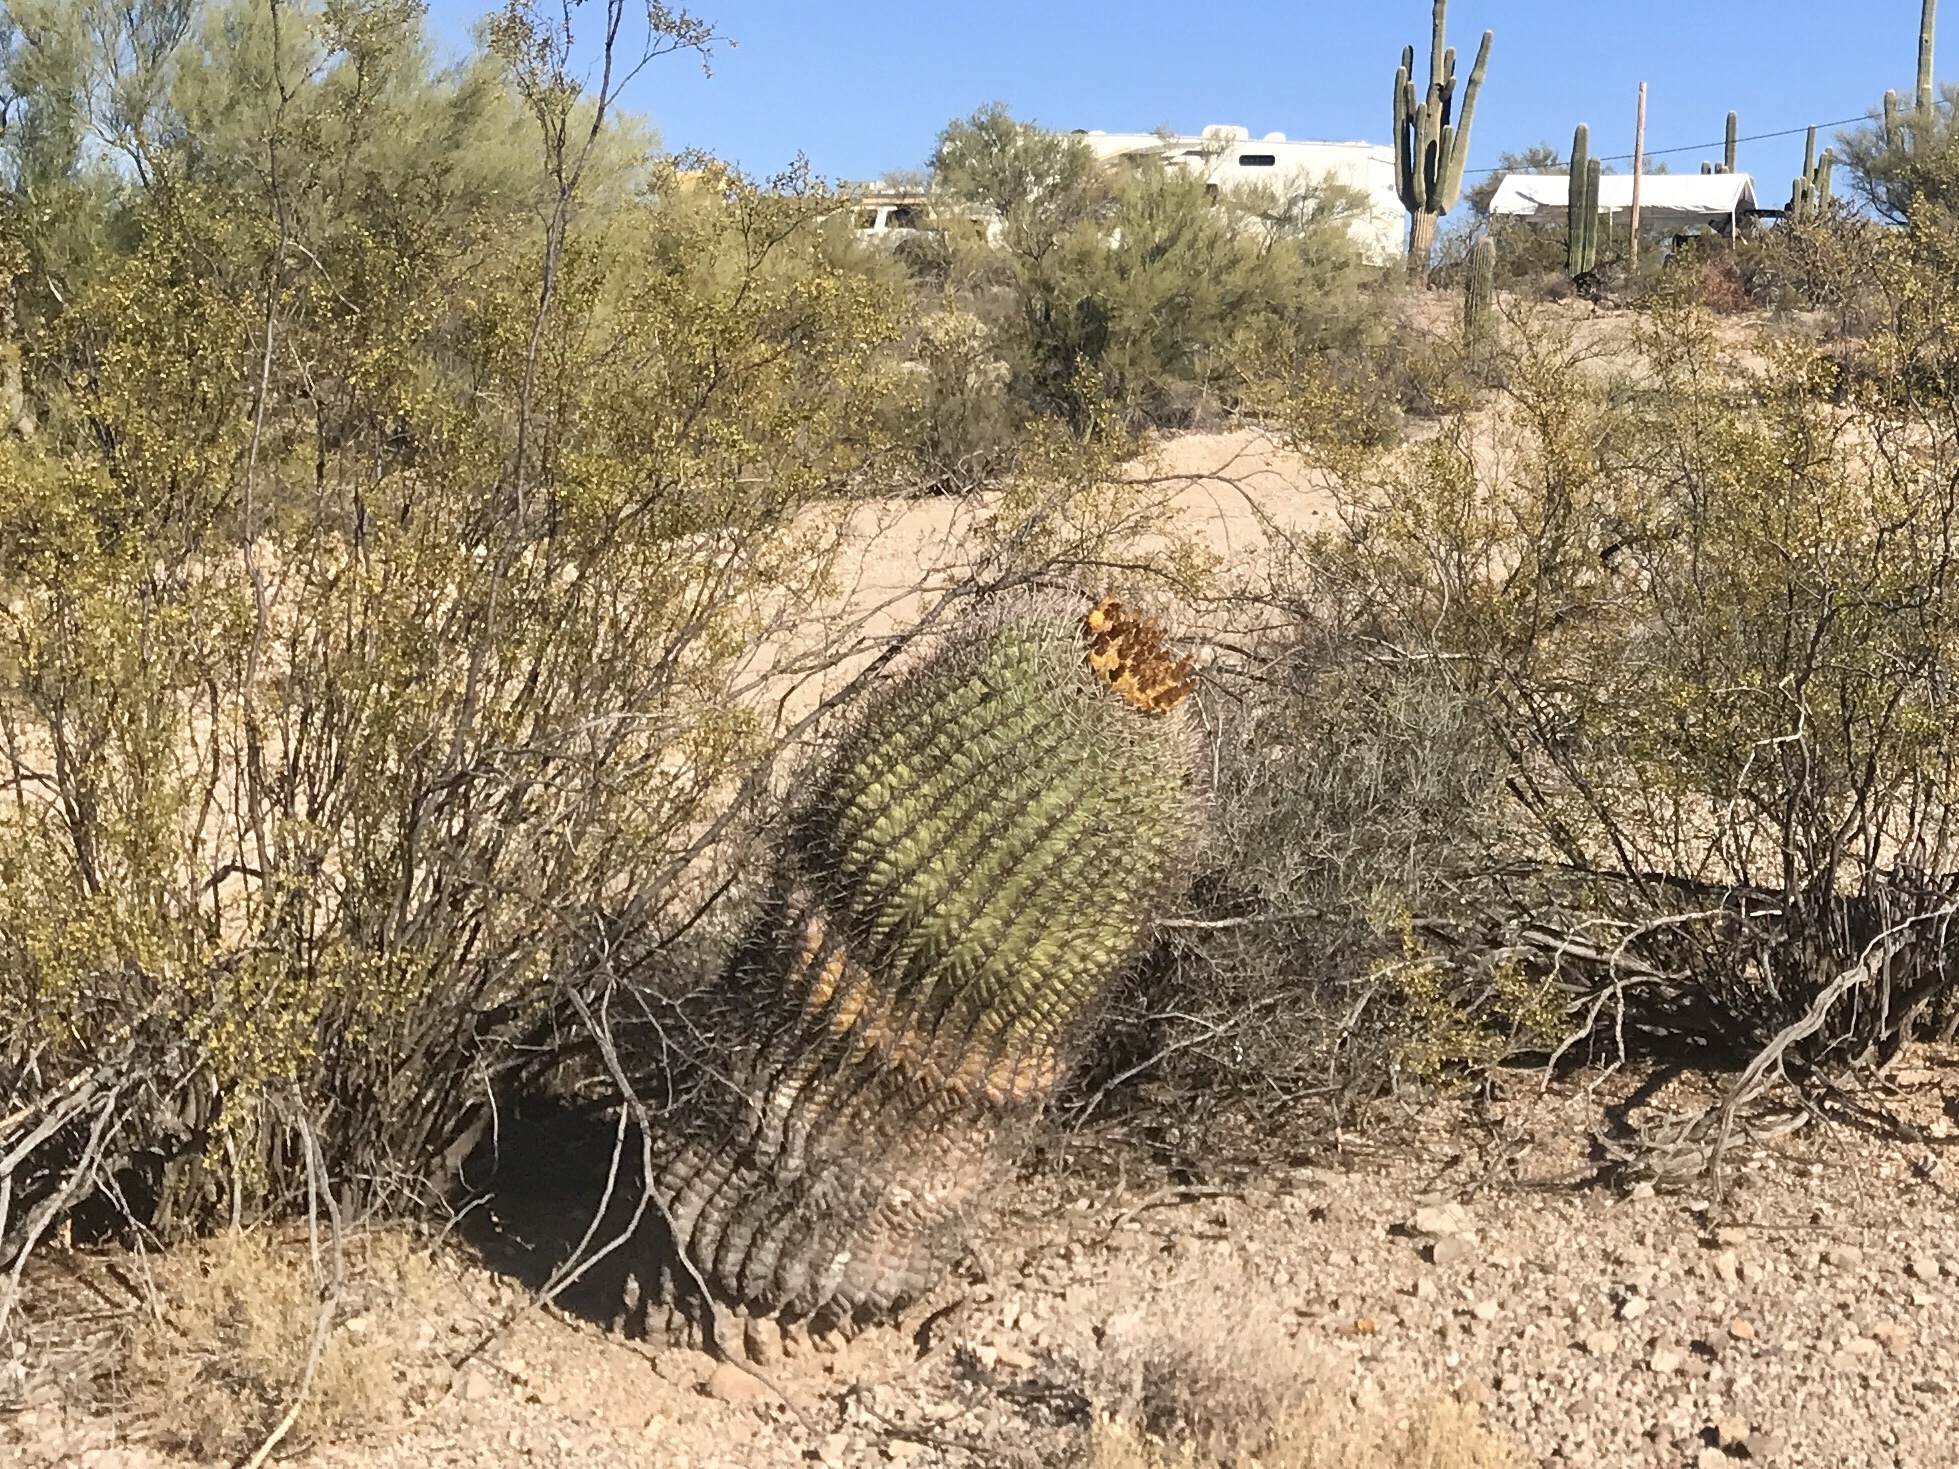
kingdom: Plantae
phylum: Tracheophyta
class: Magnoliopsida
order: Caryophyllales
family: Cactaceae
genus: Ferocactus
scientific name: Ferocactus wislizeni
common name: Candy barrel cactus
